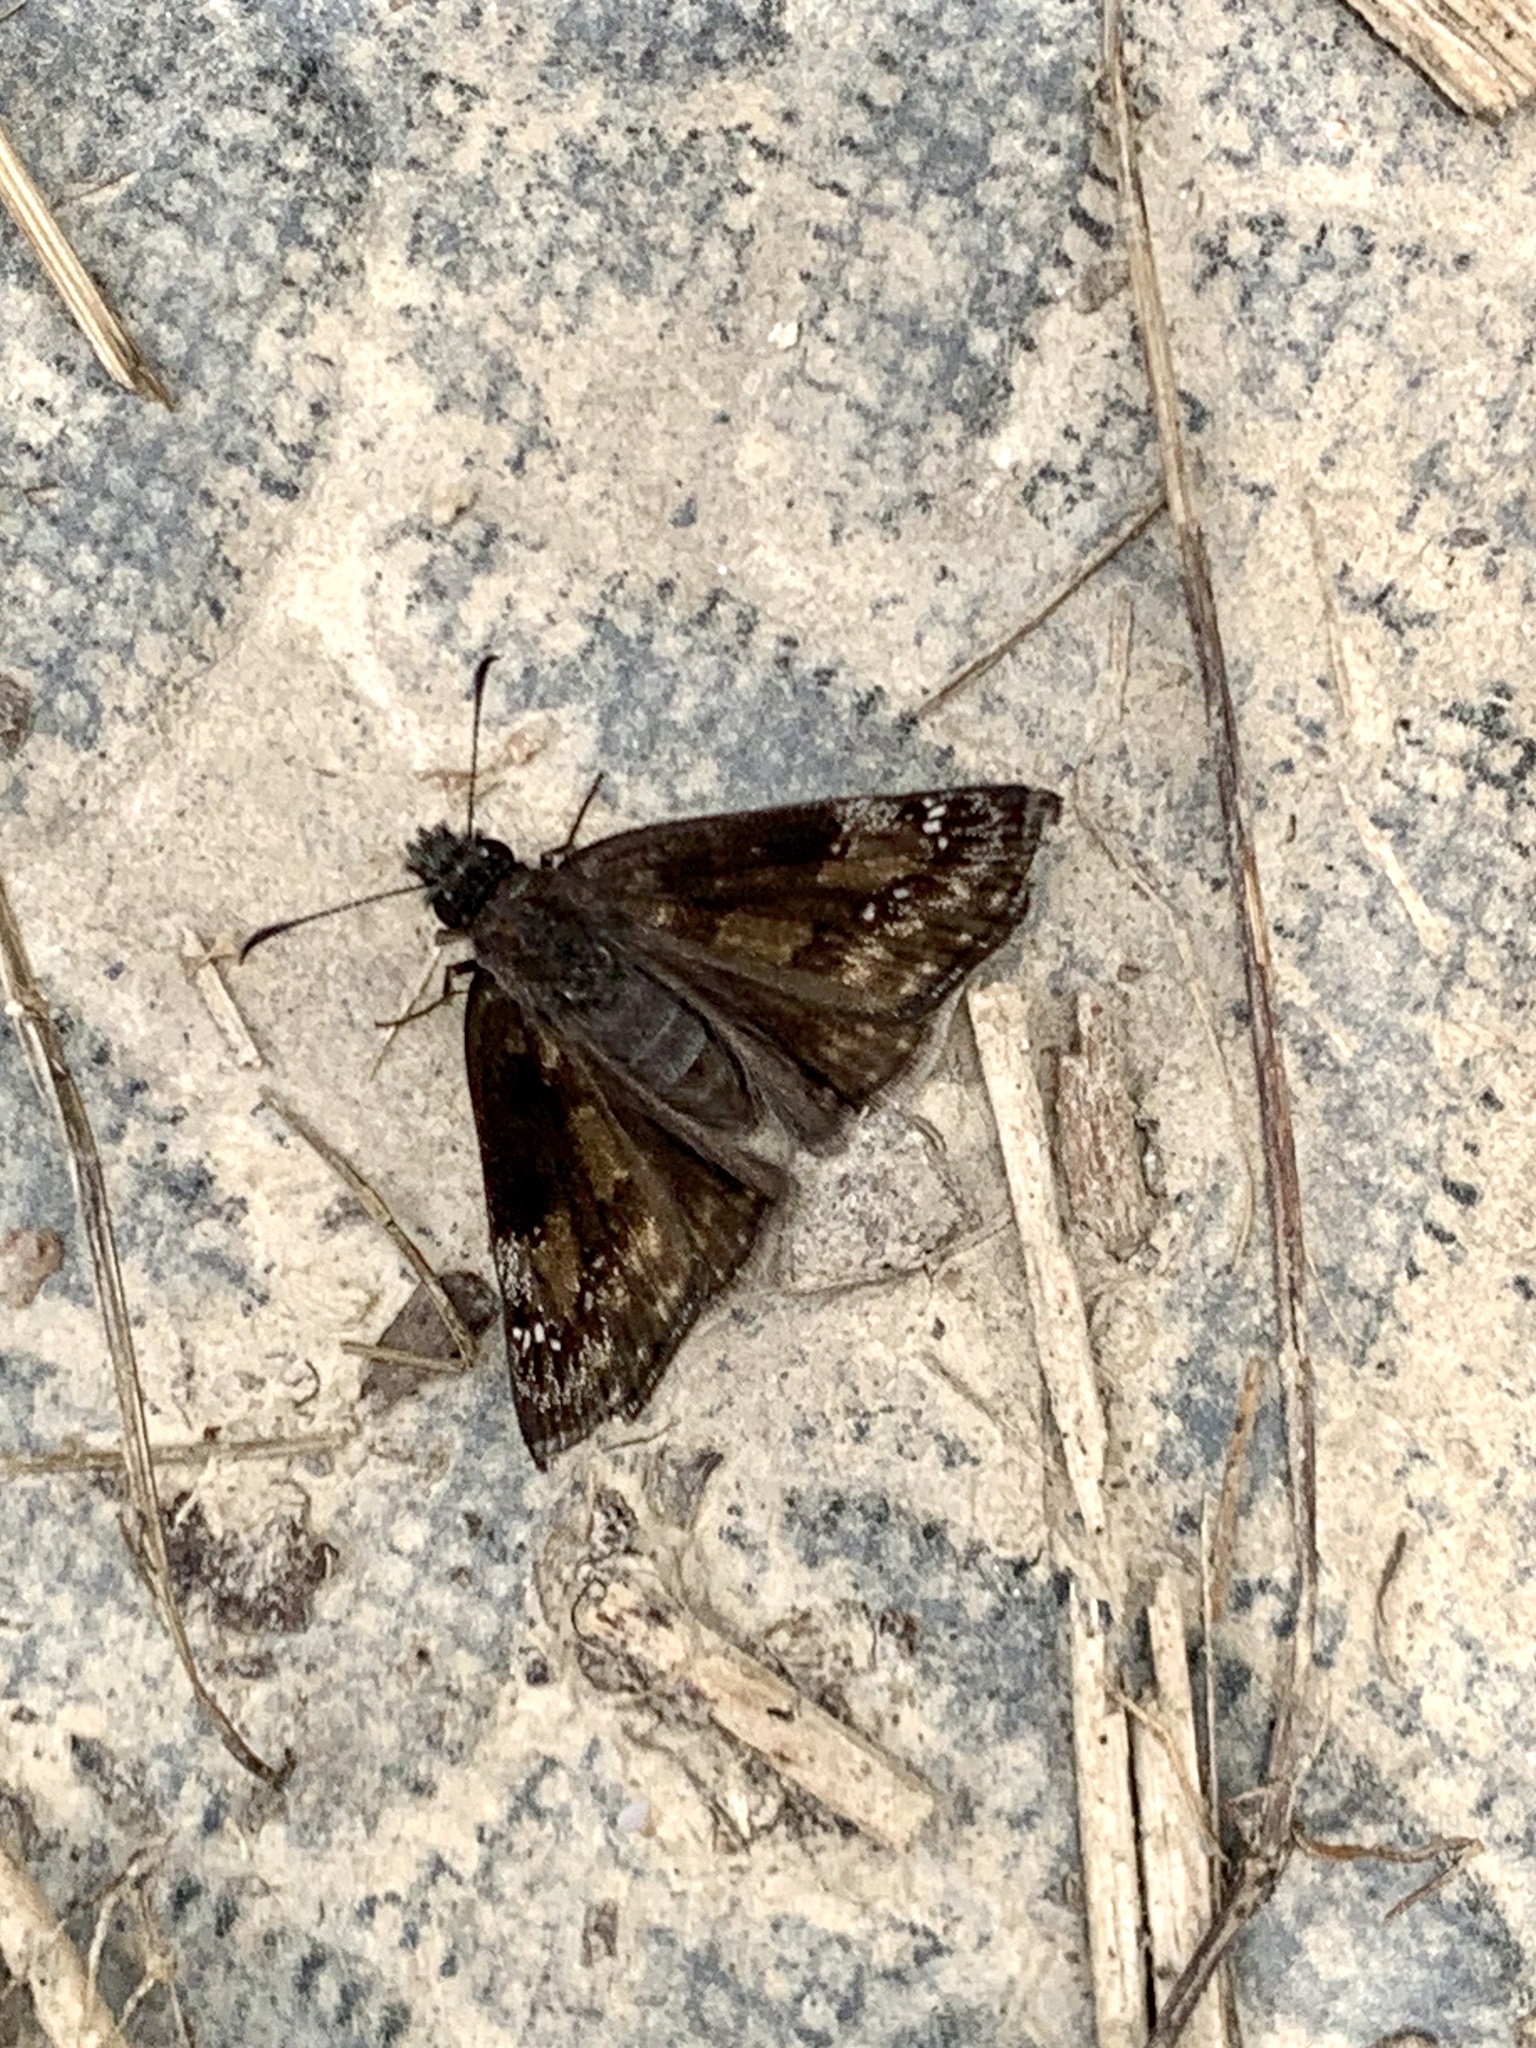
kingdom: Animalia
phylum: Arthropoda
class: Insecta
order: Lepidoptera
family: Hesperiidae
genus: Erynnis
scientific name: Erynnis baptisiae
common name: Wild indigo duskywing
